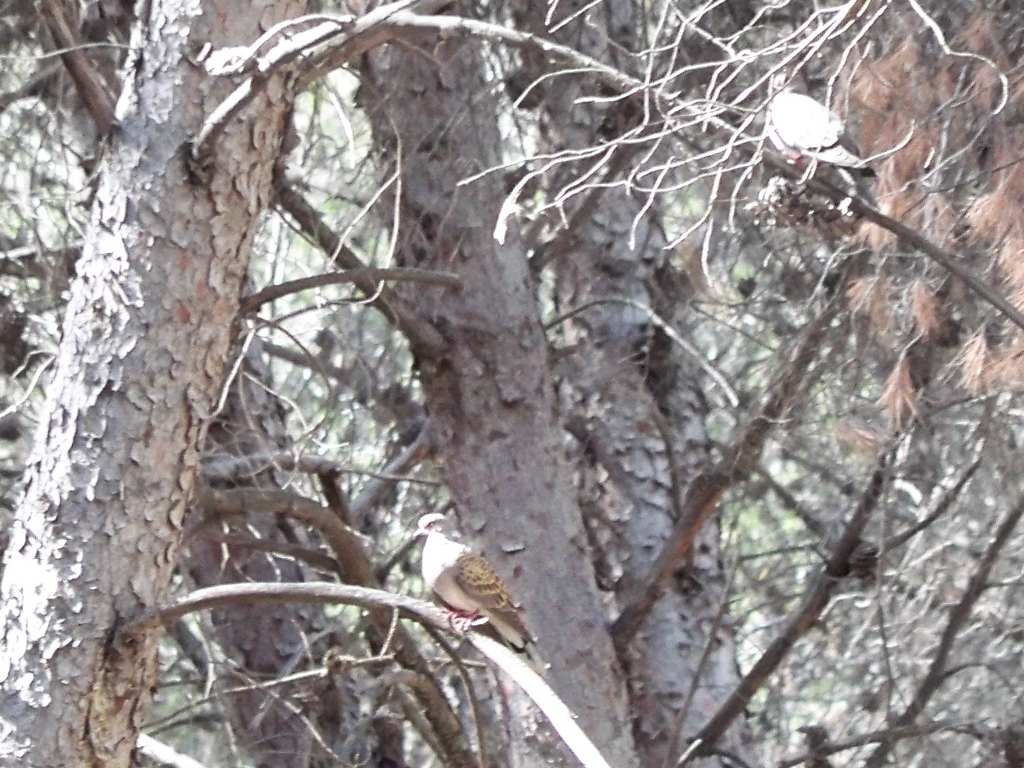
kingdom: Animalia
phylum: Chordata
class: Aves
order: Columbiformes
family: Columbidae
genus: Streptopelia
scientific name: Streptopelia turtur
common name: European turtle dove
